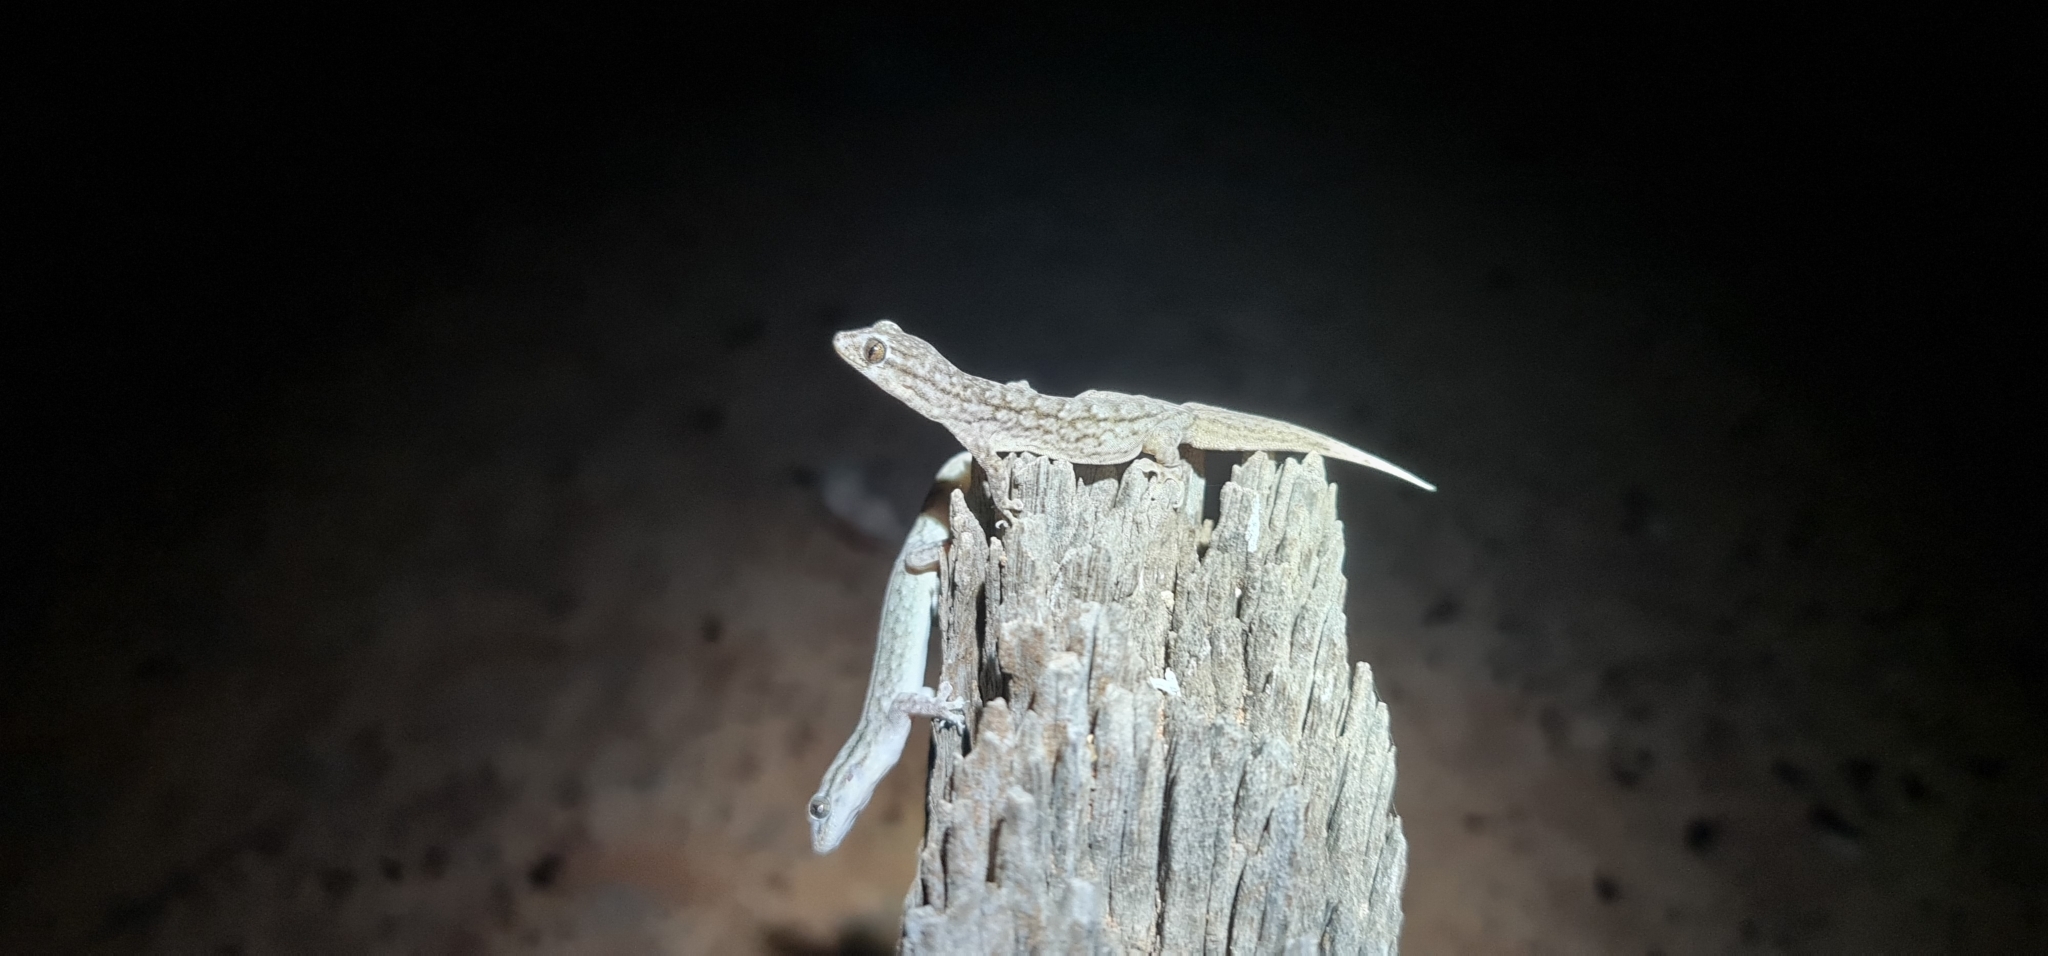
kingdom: Animalia
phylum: Chordata
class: Squamata
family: Gekkonidae
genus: Gehyra
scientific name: Gehyra versicolor
